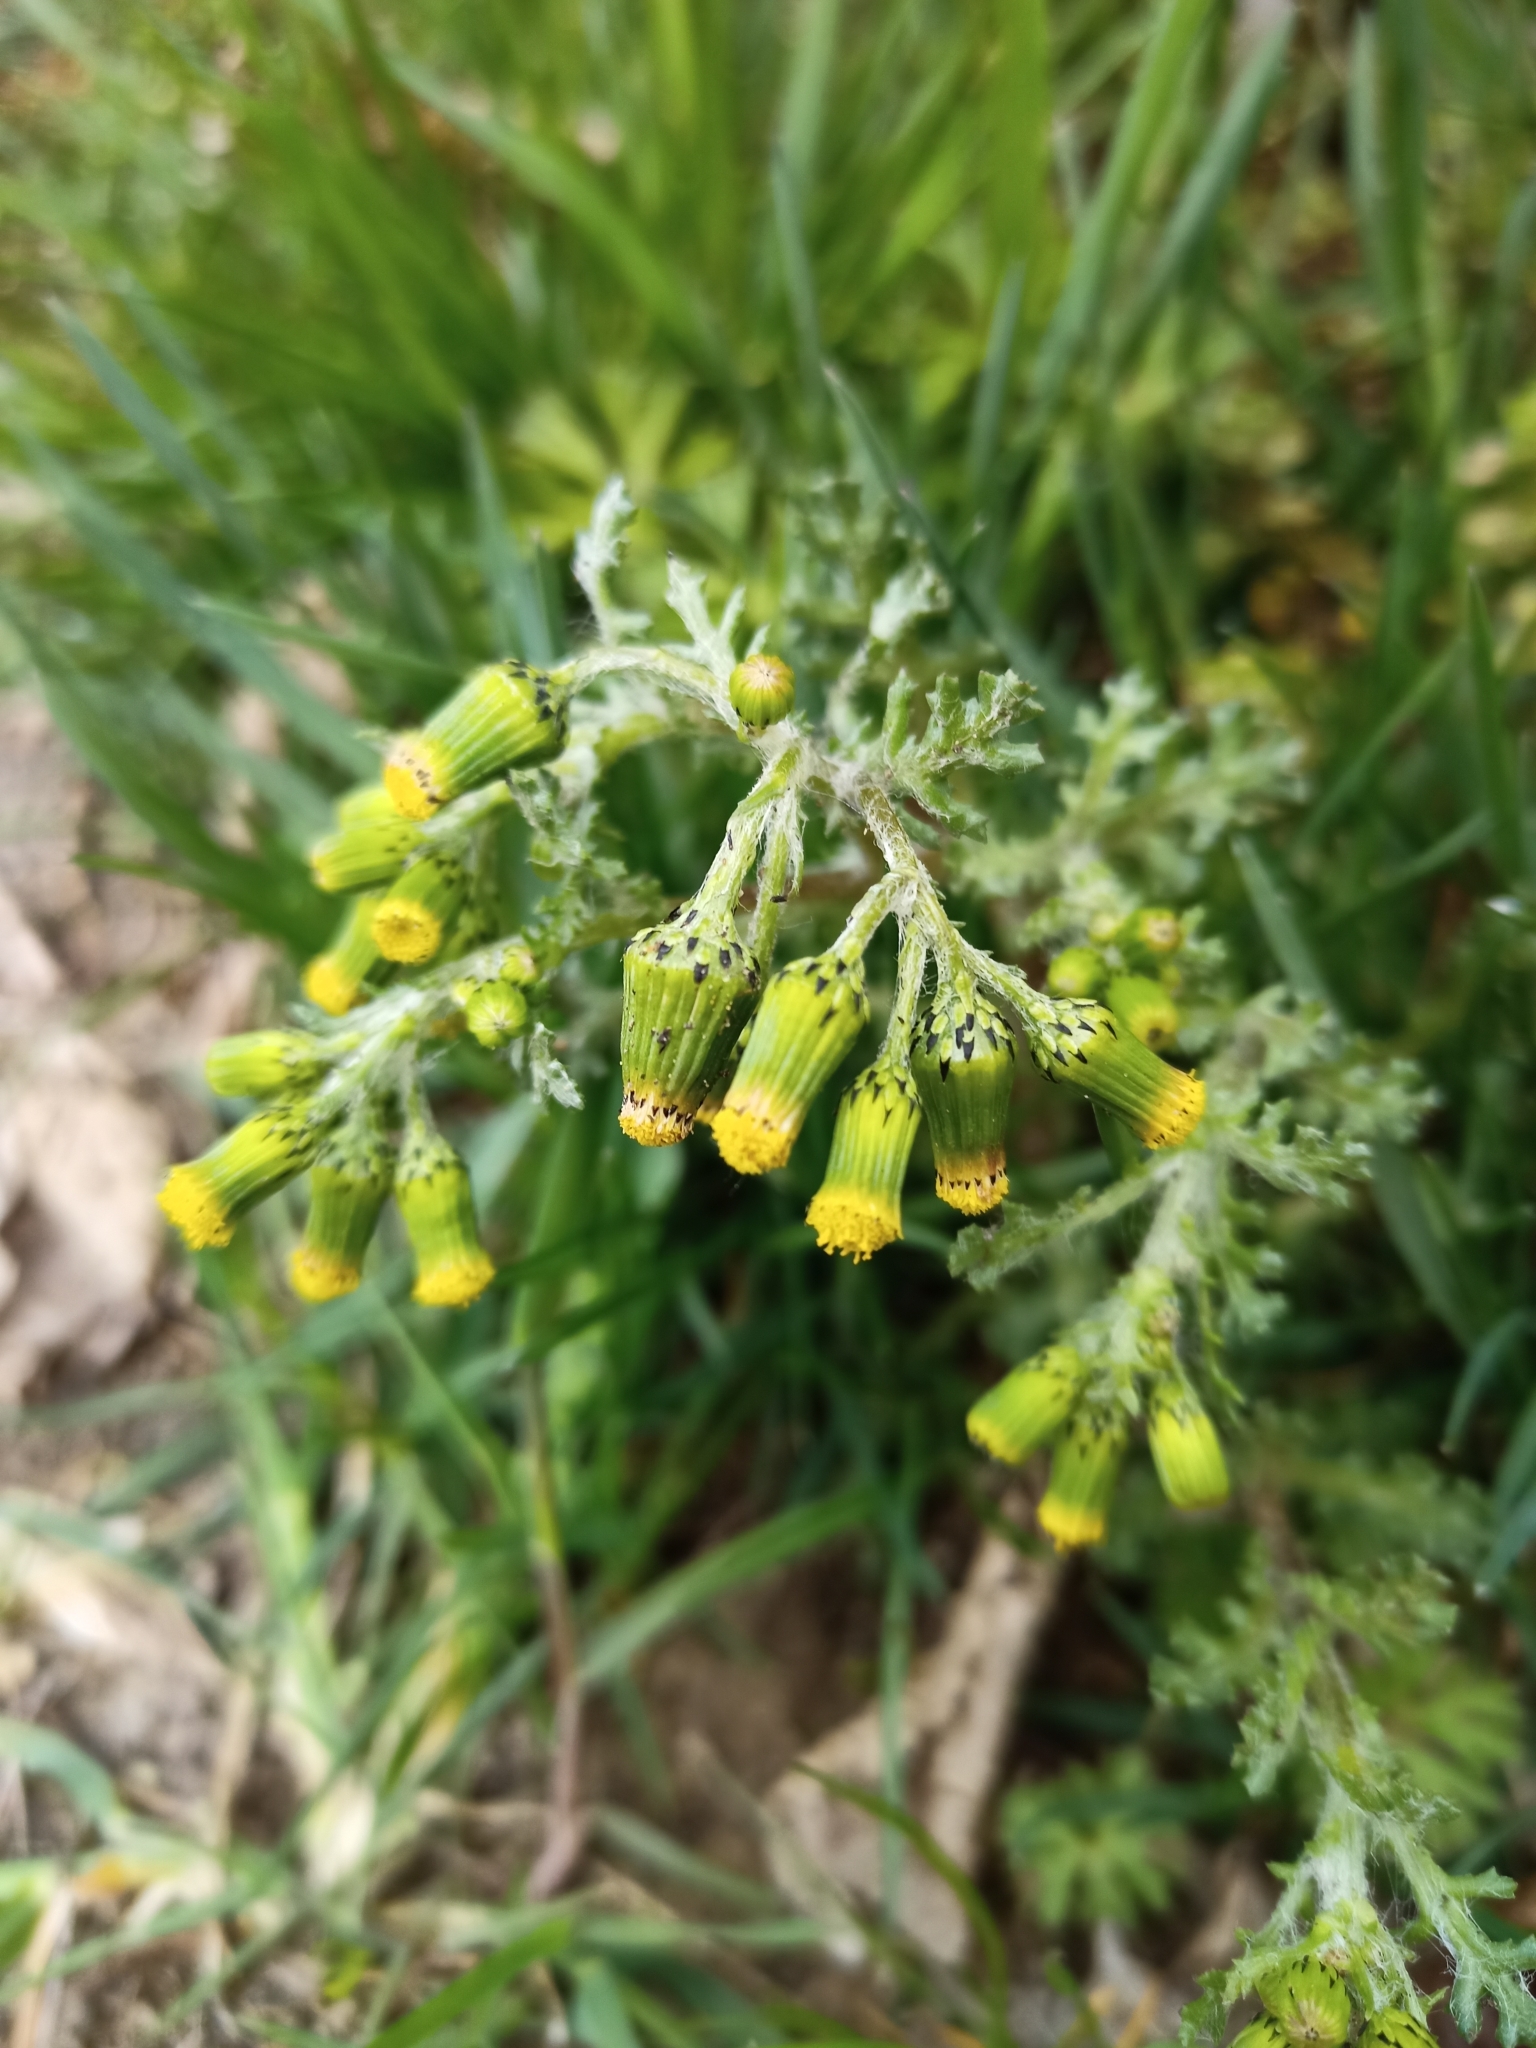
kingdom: Plantae
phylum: Tracheophyta
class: Magnoliopsida
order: Asterales
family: Asteraceae
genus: Senecio
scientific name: Senecio vulgaris
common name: Old-man-in-the-spring
